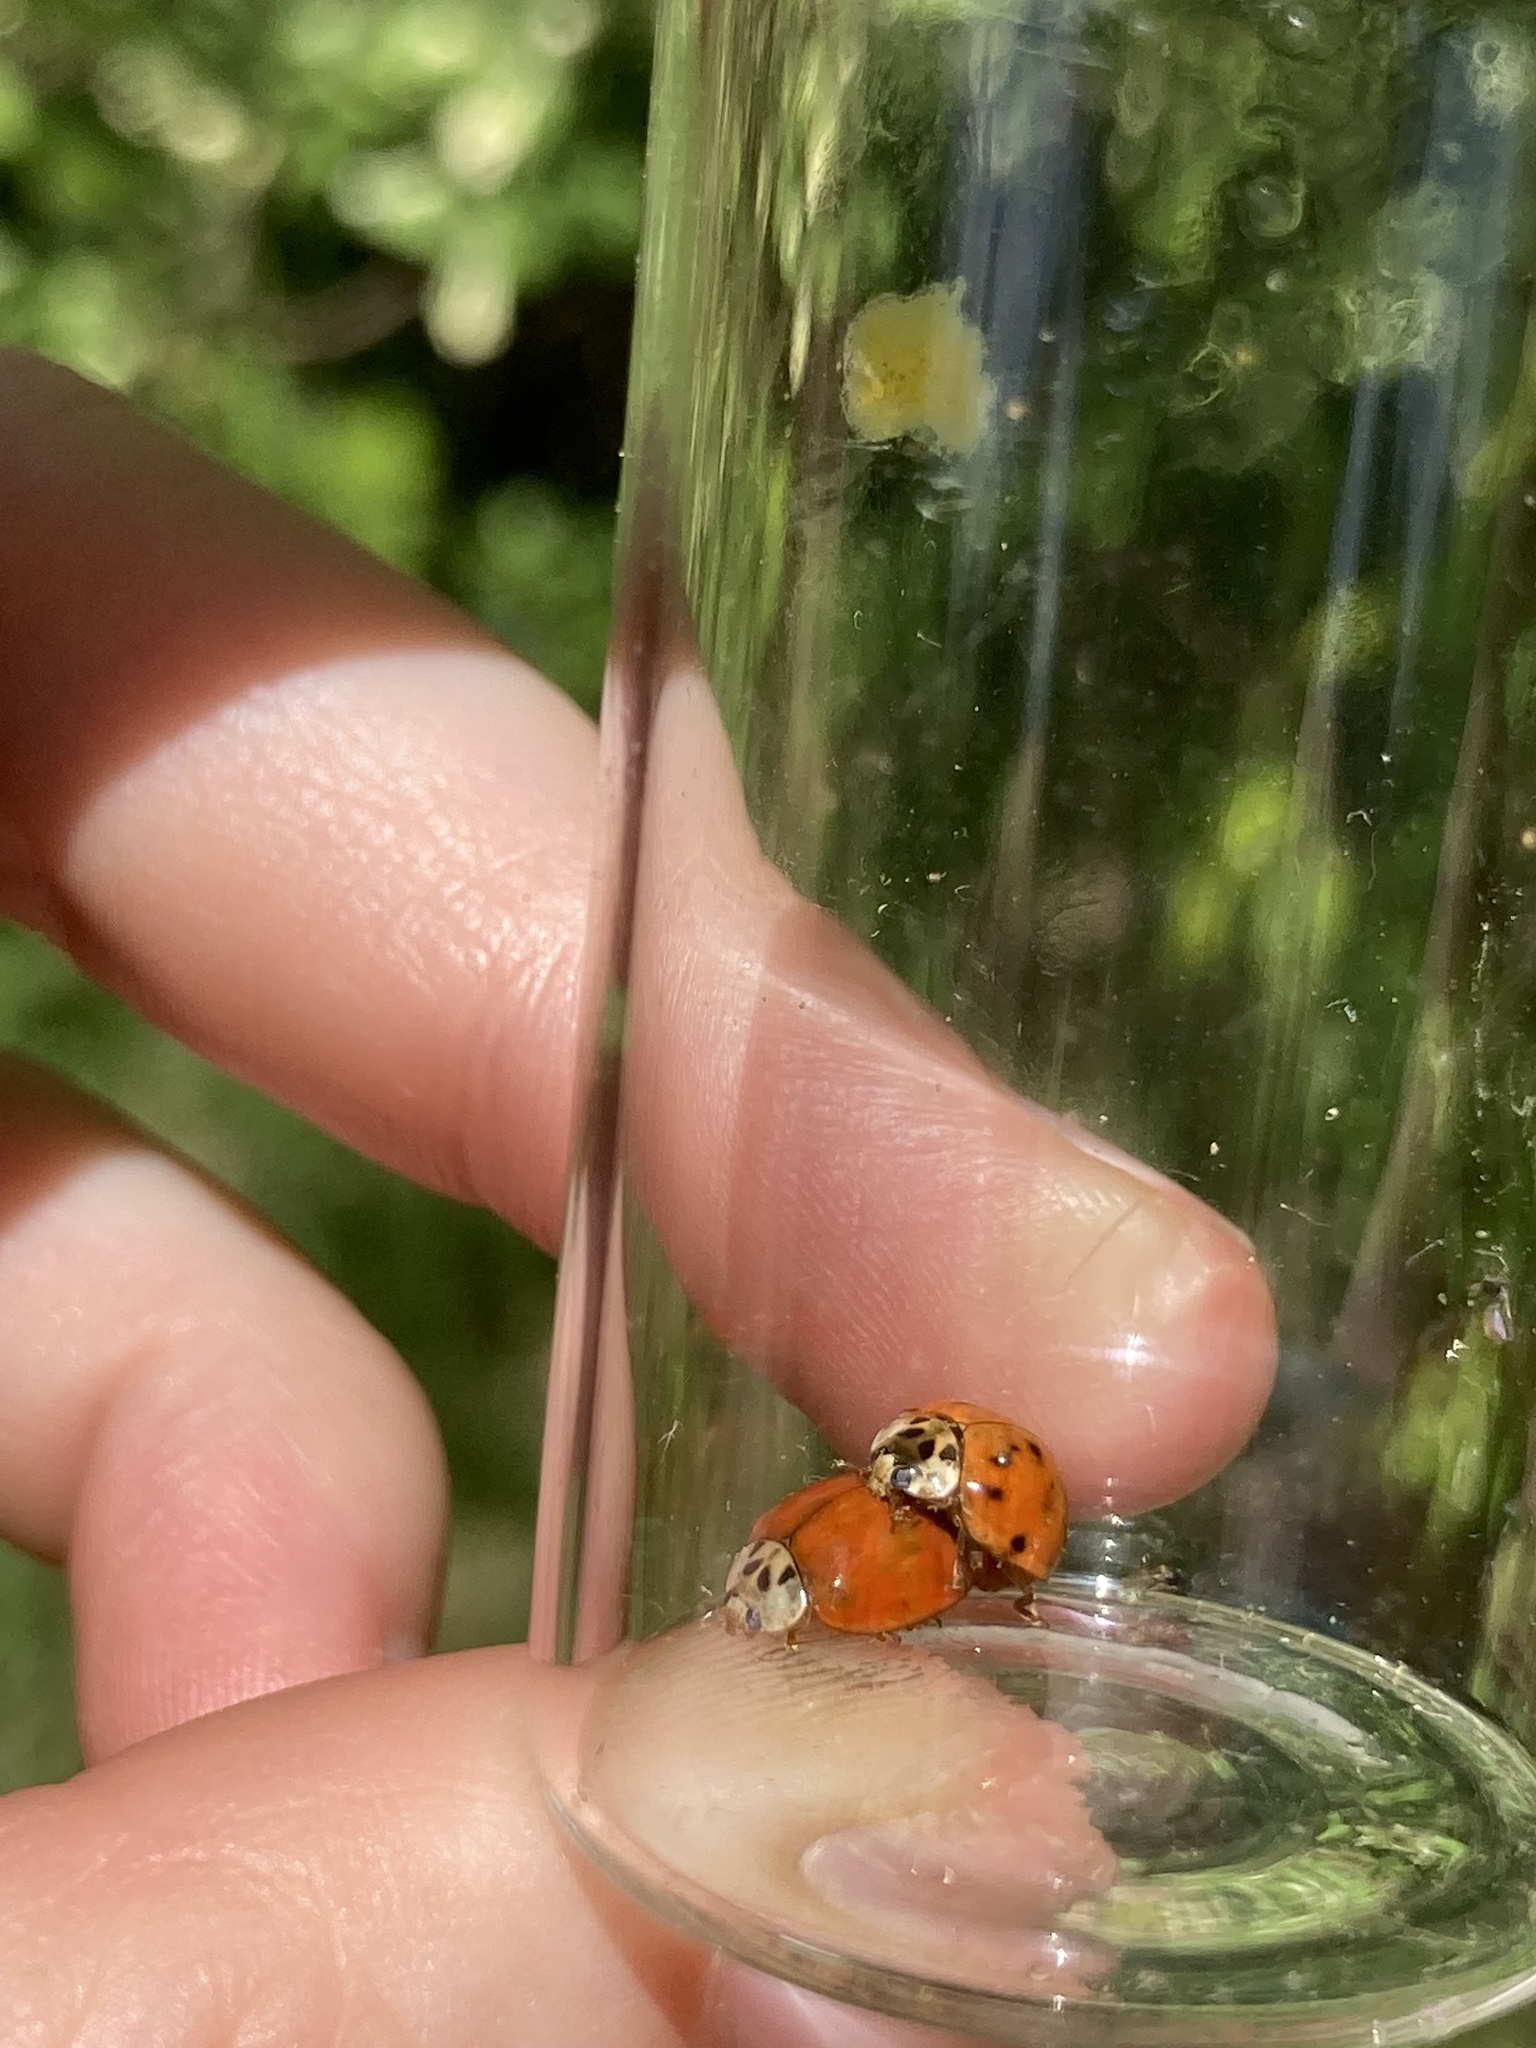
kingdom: Animalia
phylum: Arthropoda
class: Insecta
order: Coleoptera
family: Coccinellidae
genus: Harmonia
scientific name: Harmonia axyridis
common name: Harlequin ladybird
